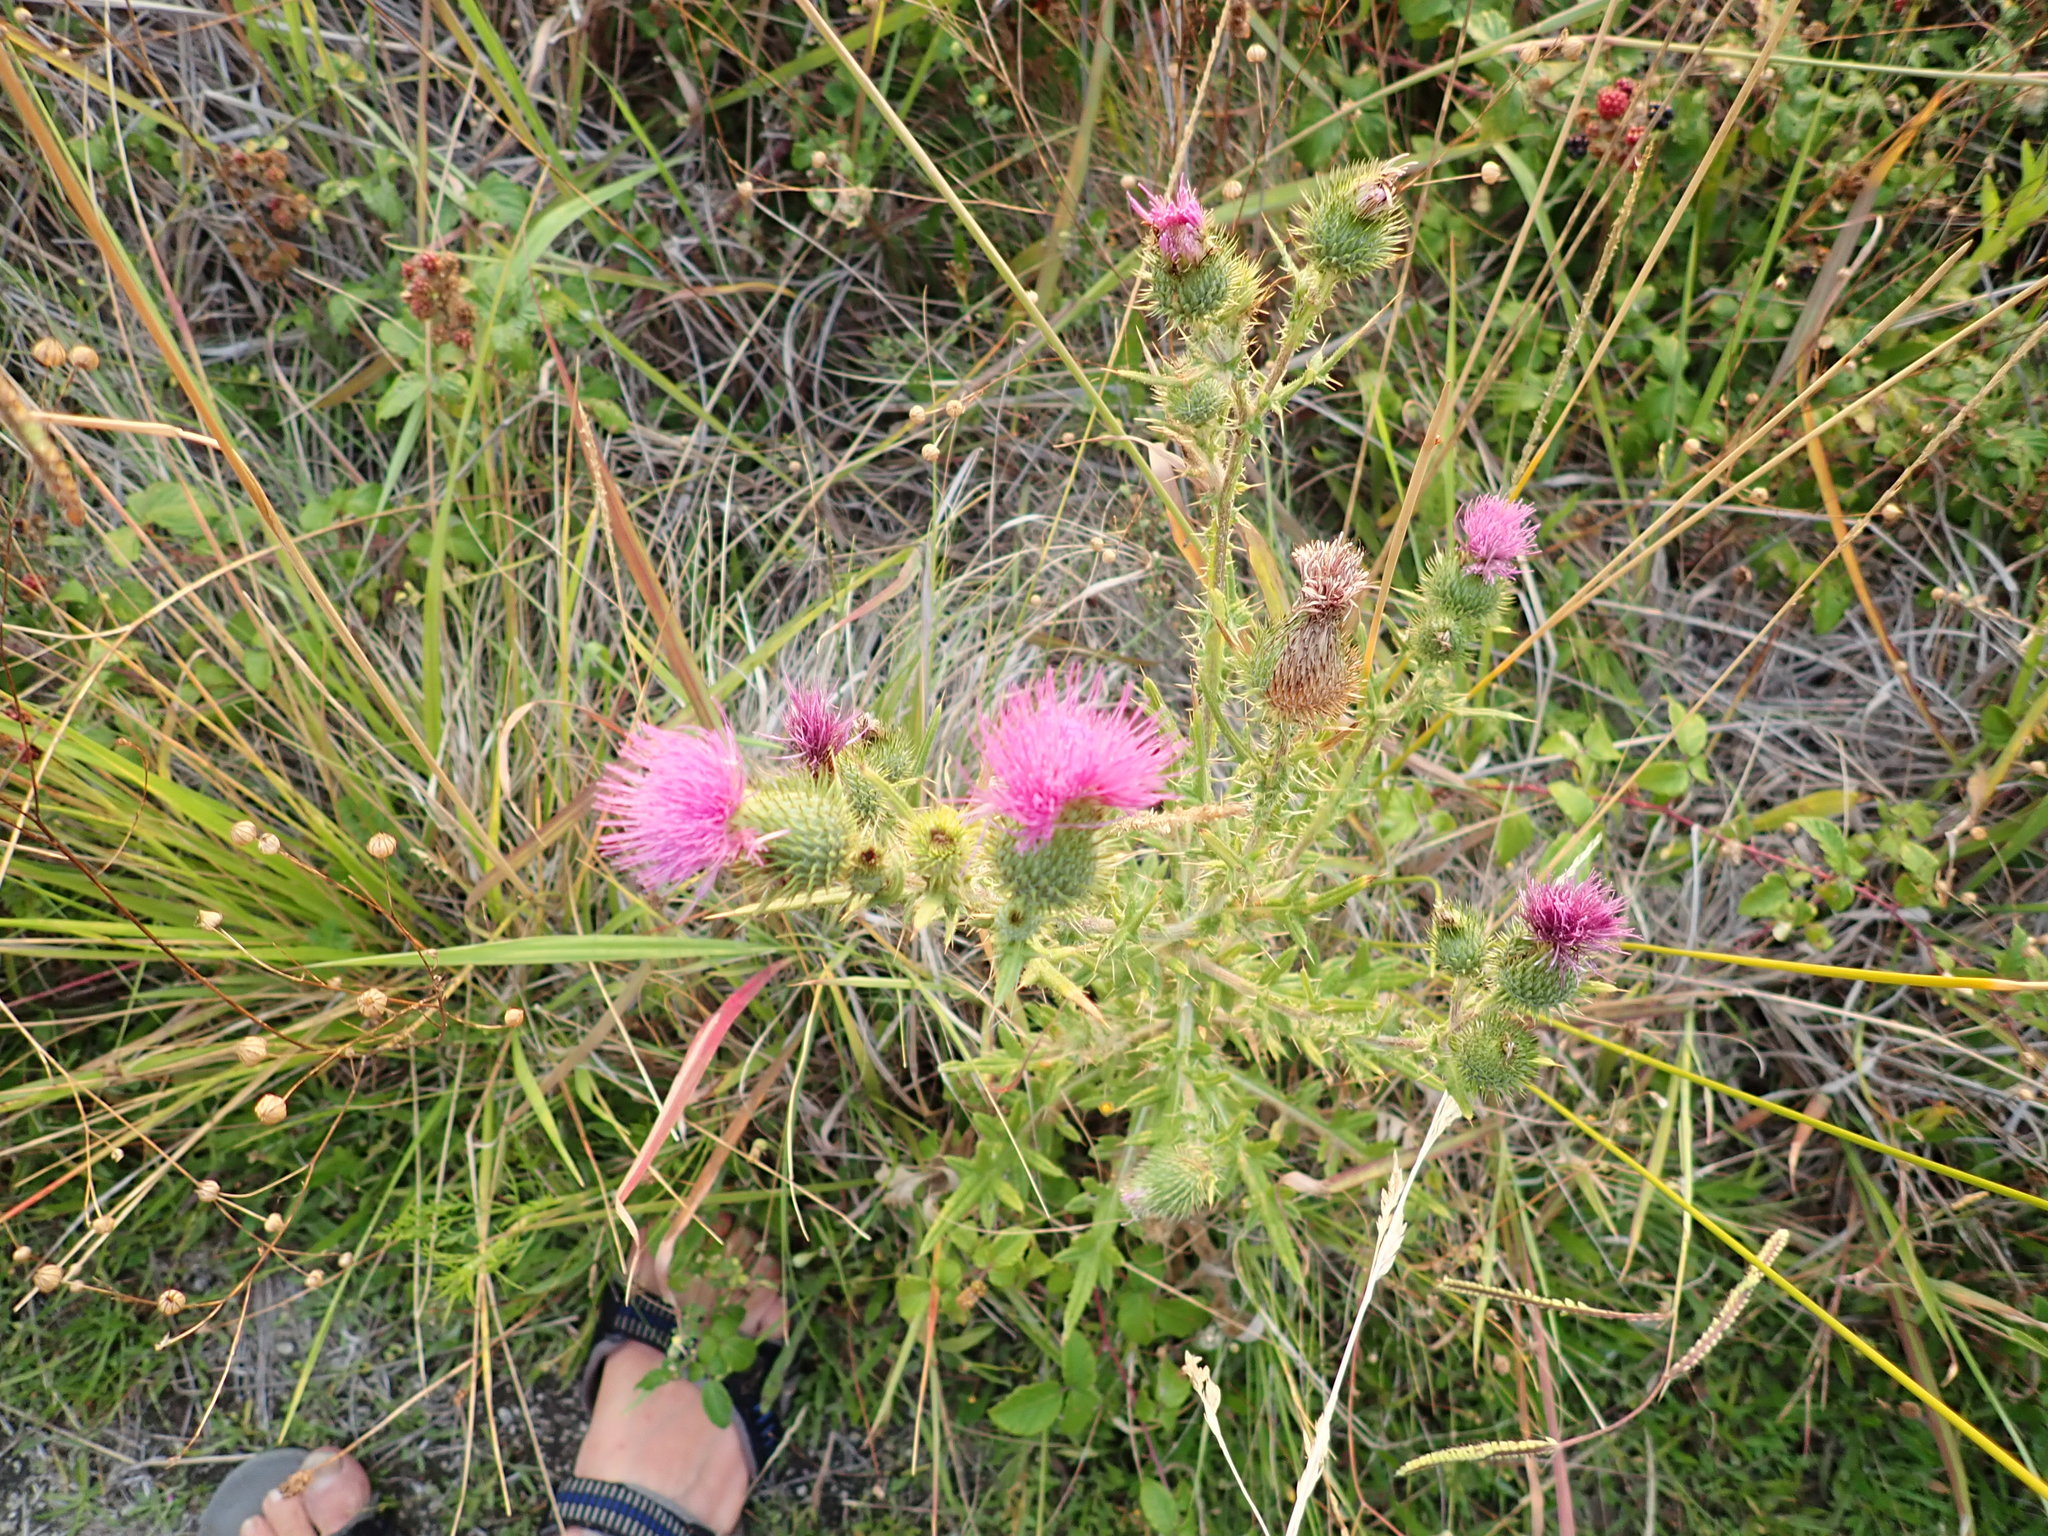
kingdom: Plantae
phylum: Tracheophyta
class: Magnoliopsida
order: Asterales
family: Asteraceae
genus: Cirsium
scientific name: Cirsium vulgare
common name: Bull thistle
